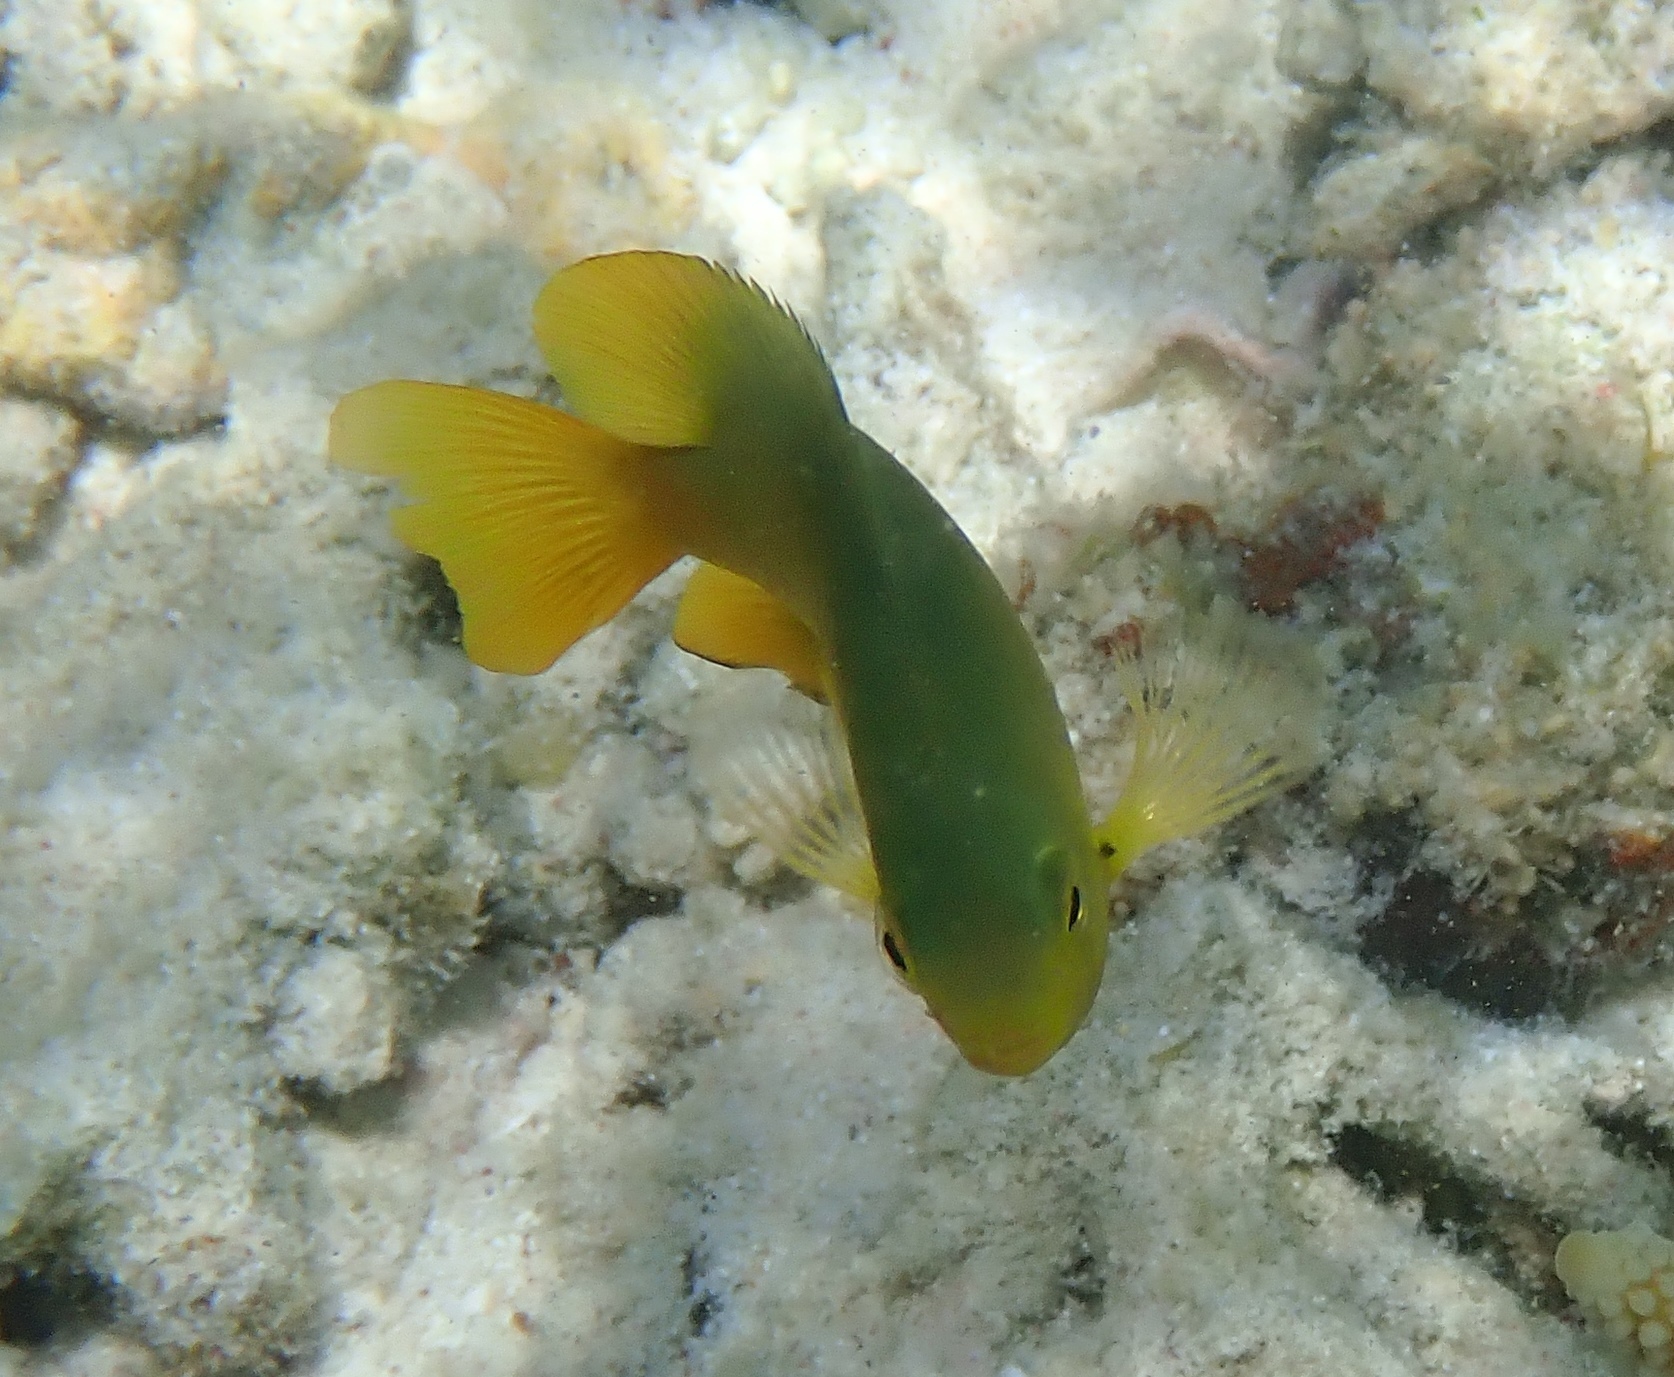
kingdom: Animalia
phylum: Chordata
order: Perciformes
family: Pomacentridae
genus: Pomacentrus
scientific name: Pomacentrus moluccensis
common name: Lemon damsel
